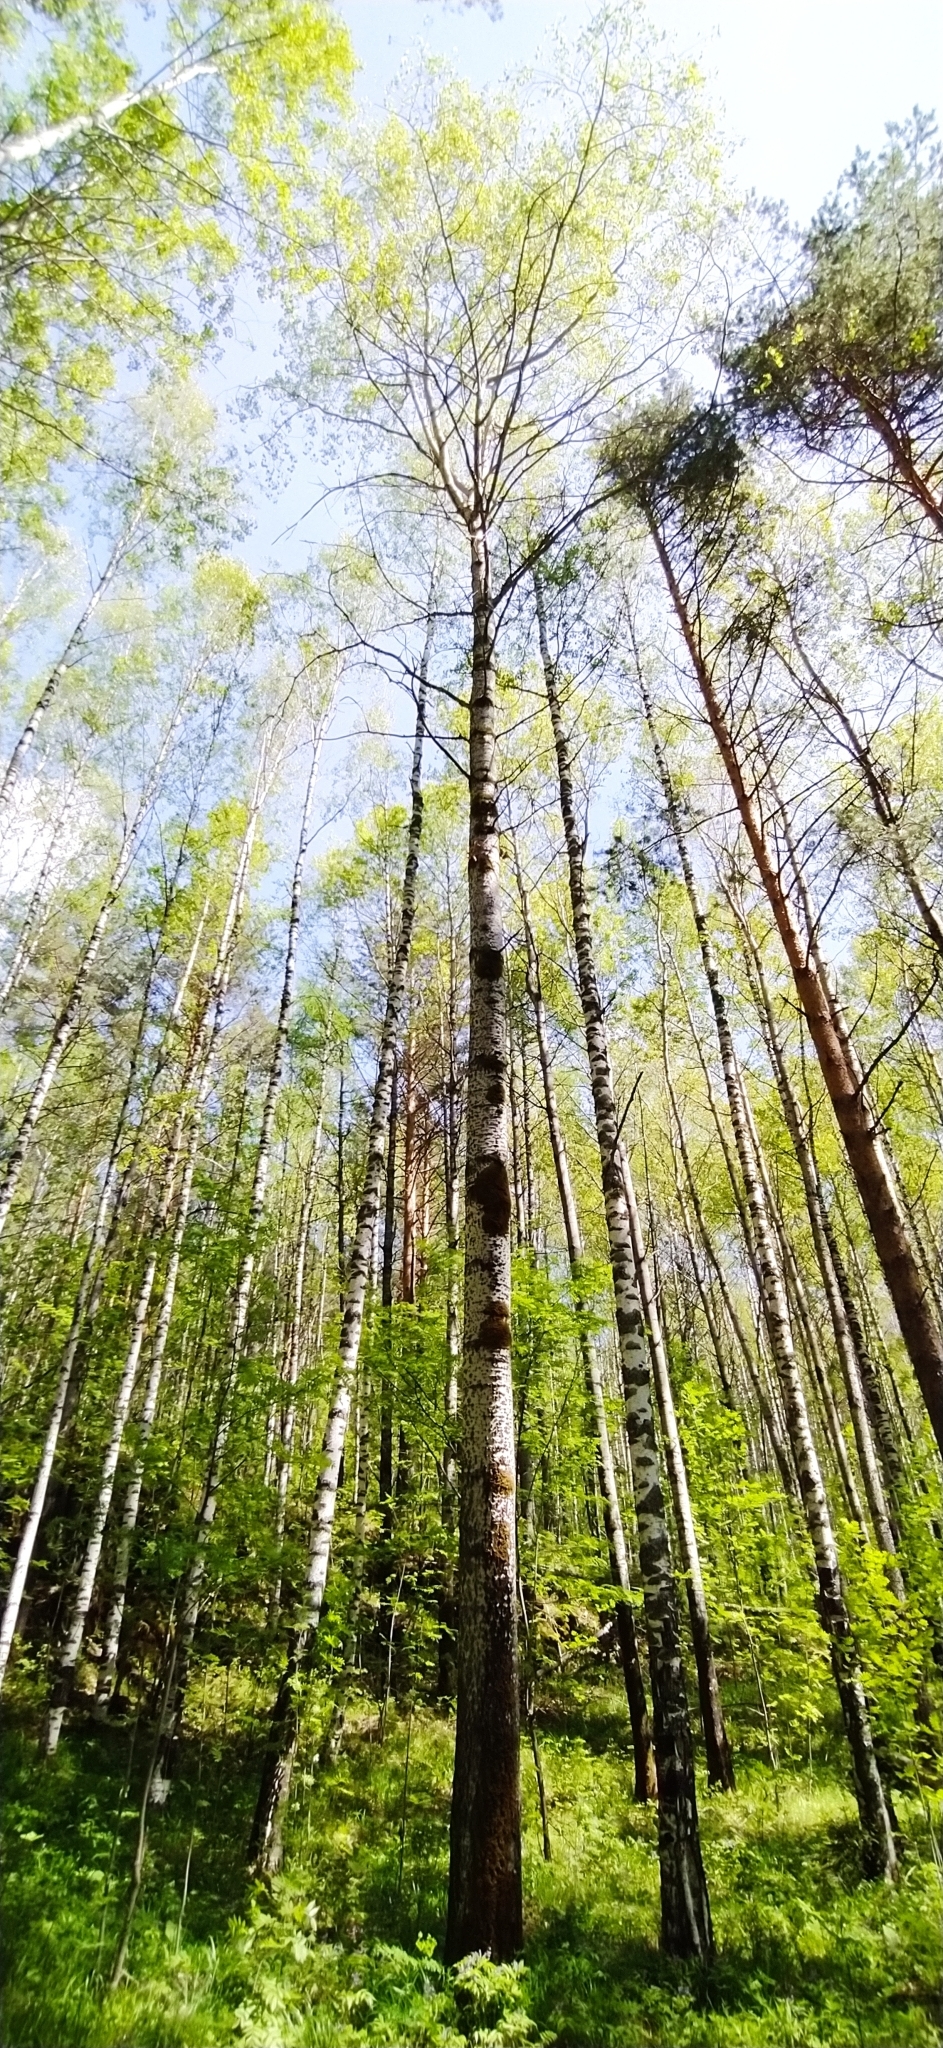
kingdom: Plantae
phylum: Tracheophyta
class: Magnoliopsida
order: Malpighiales
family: Salicaceae
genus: Populus
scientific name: Populus tremula
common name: European aspen
